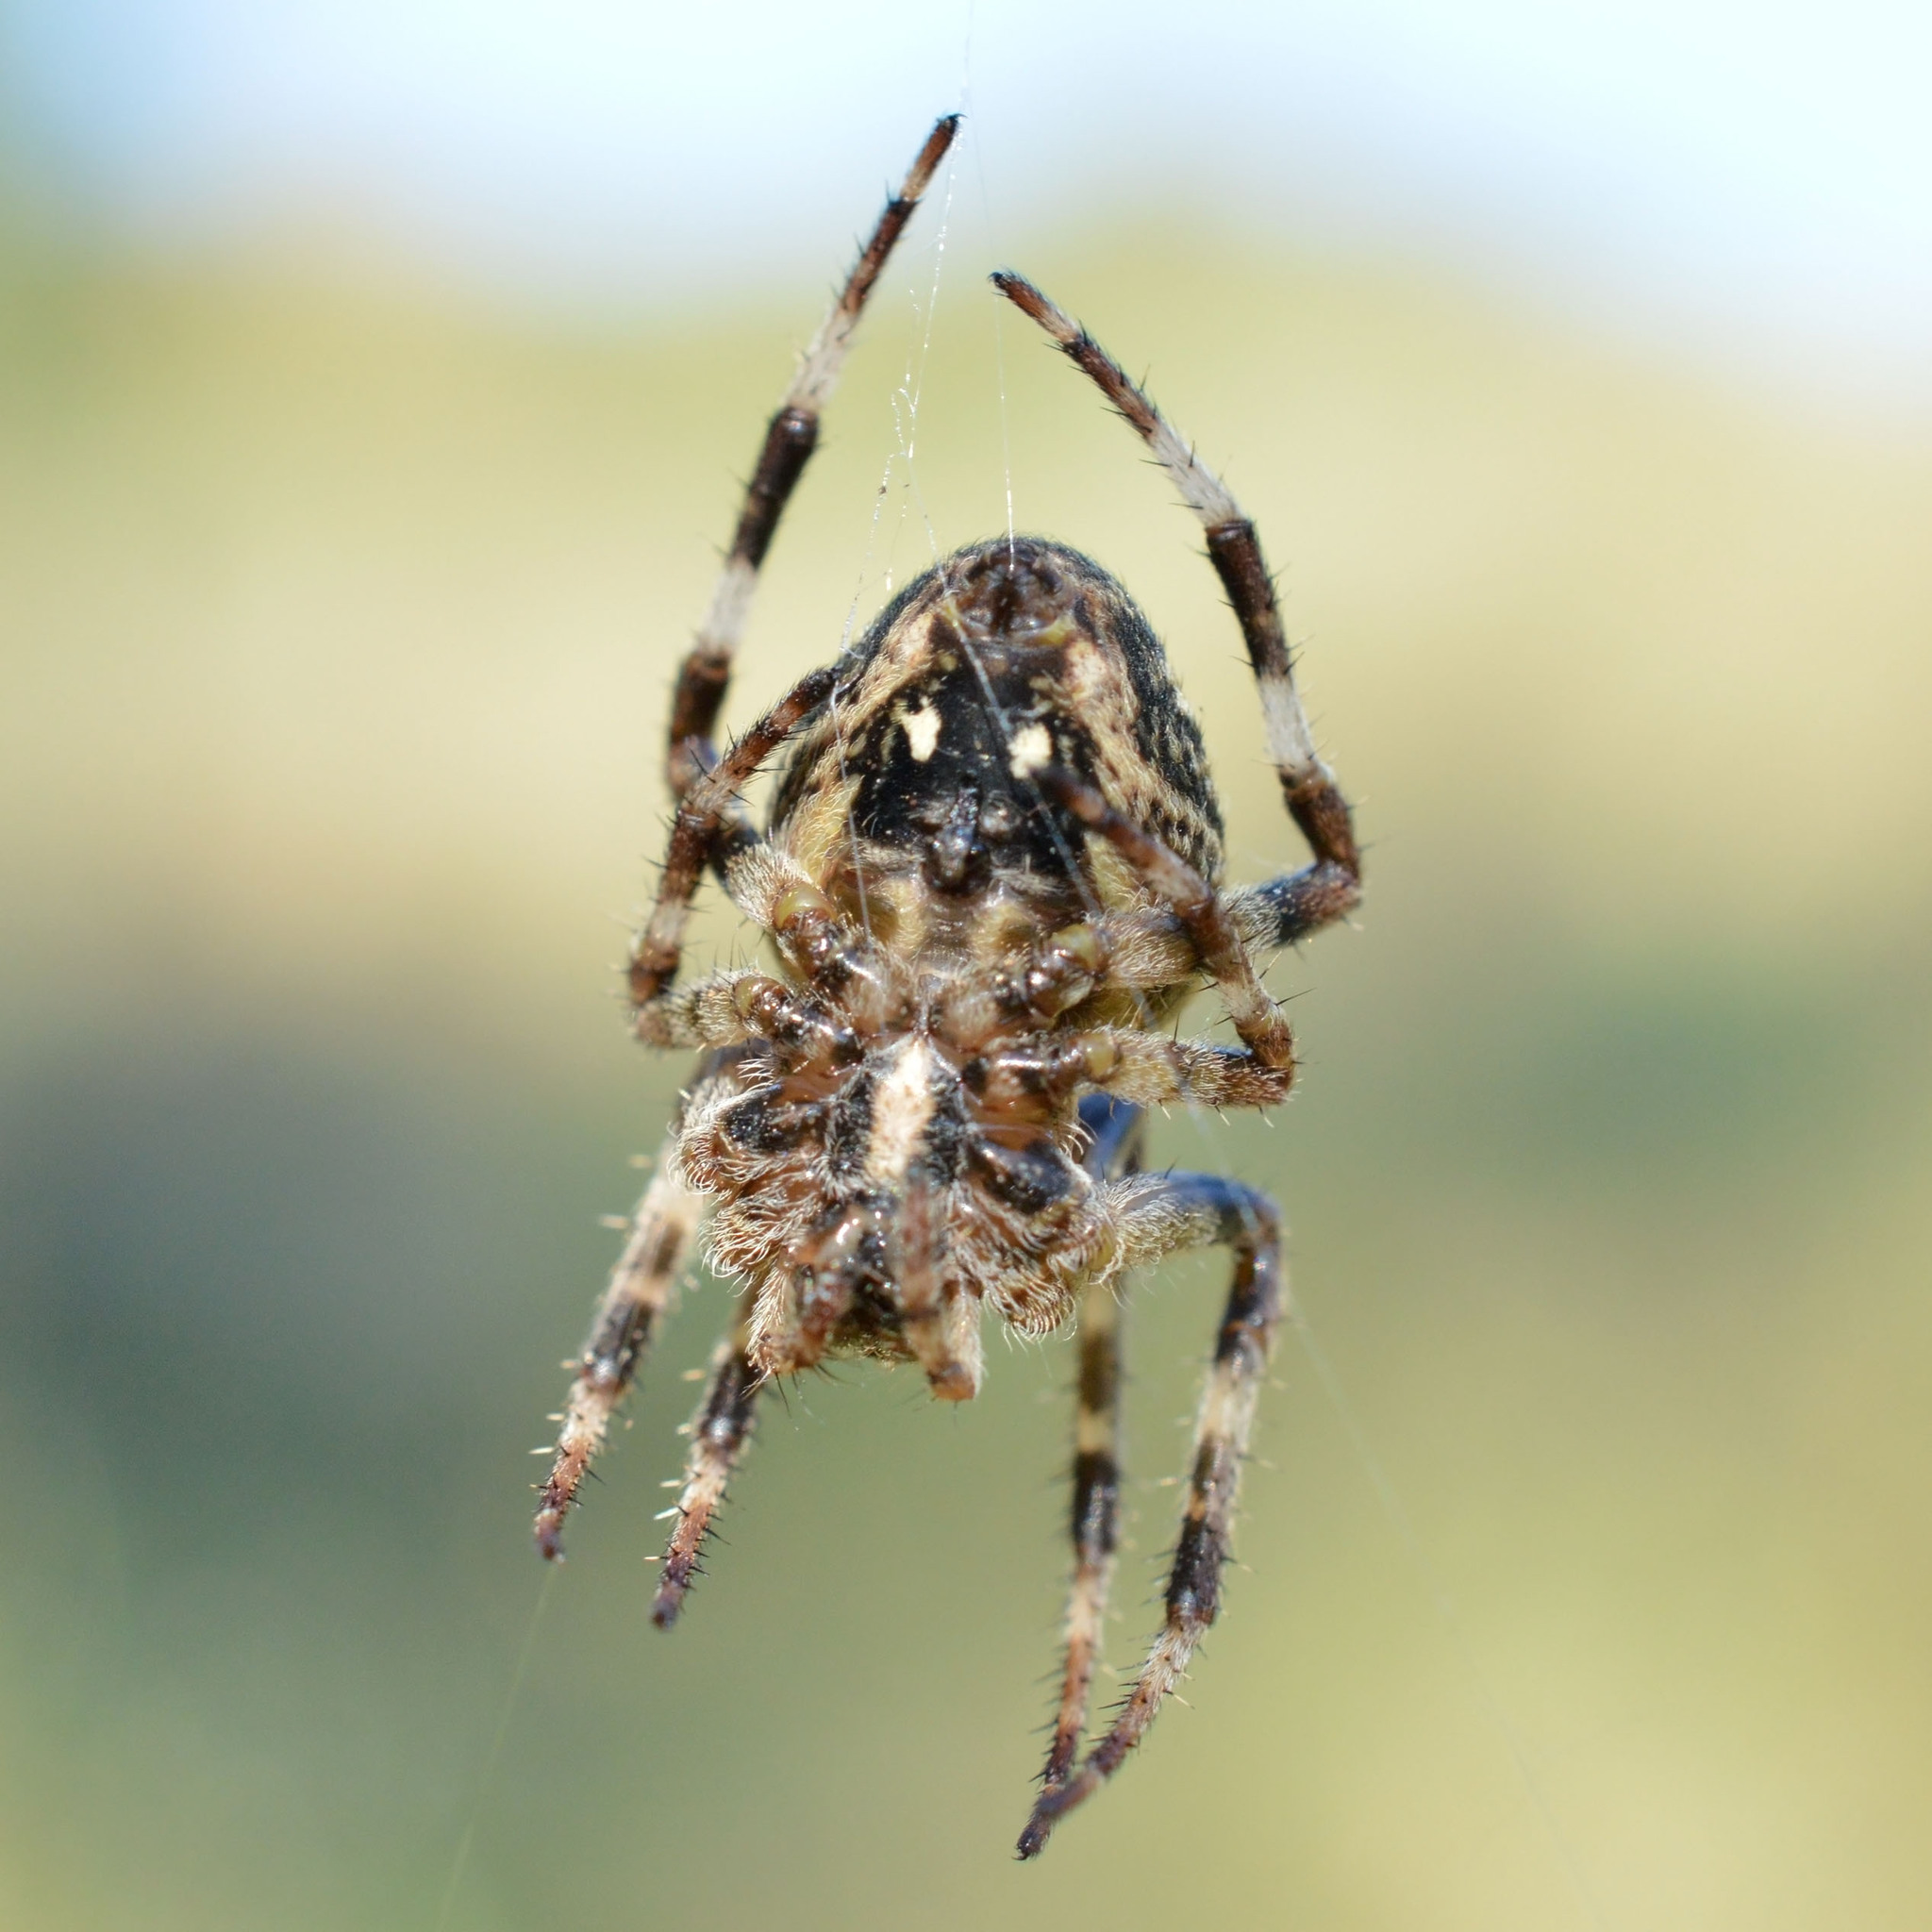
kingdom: Animalia
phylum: Arthropoda
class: Arachnida
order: Araneae
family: Araneidae
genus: Araneus
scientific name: Araneus angulatus
